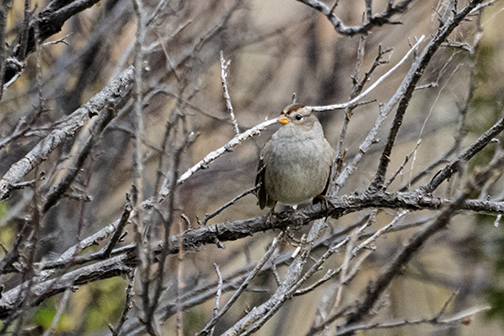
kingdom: Animalia
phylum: Chordata
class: Aves
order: Passeriformes
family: Passerellidae
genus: Zonotrichia
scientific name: Zonotrichia leucophrys
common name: White-crowned sparrow
